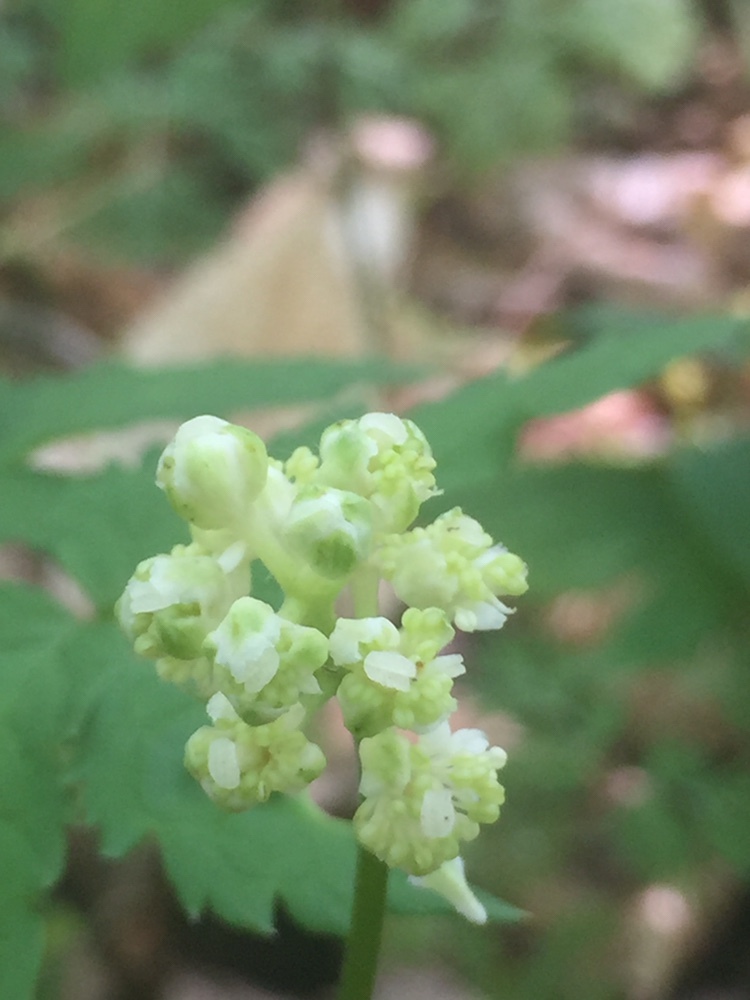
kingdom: Plantae
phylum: Tracheophyta
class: Magnoliopsida
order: Ranunculales
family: Ranunculaceae
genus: Actaea
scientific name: Actaea pachypoda
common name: Doll's-eyes
